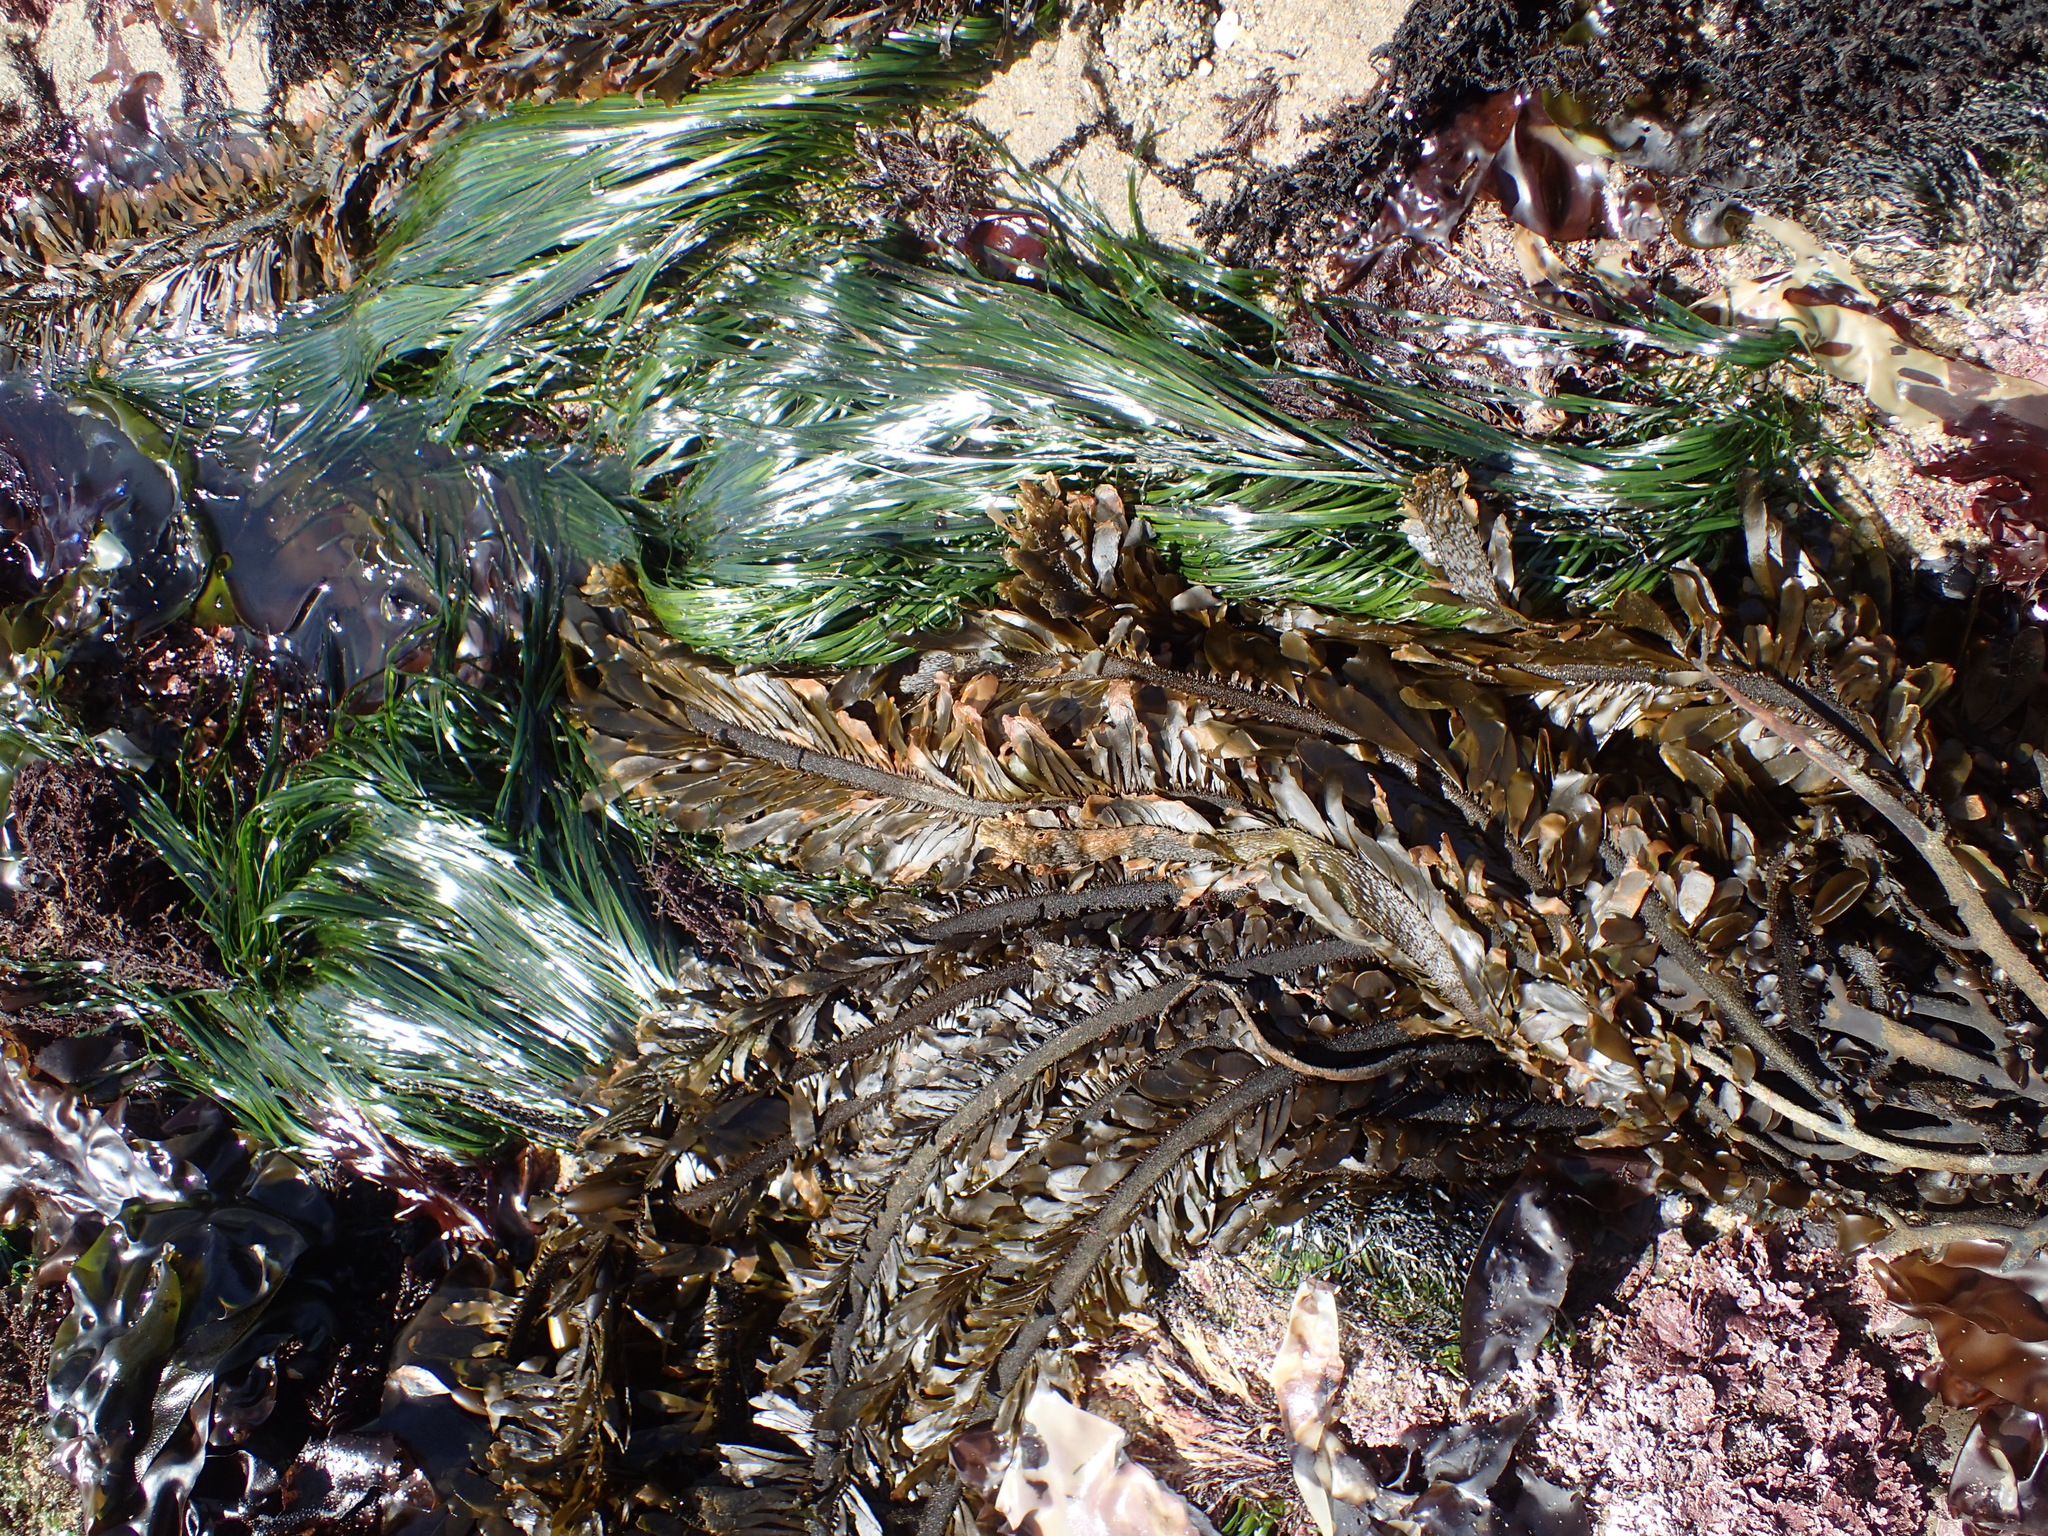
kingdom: Plantae
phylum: Tracheophyta
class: Liliopsida
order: Alismatales
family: Zosteraceae
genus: Phyllospadix
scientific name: Phyllospadix scouleri
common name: Species code: ps
